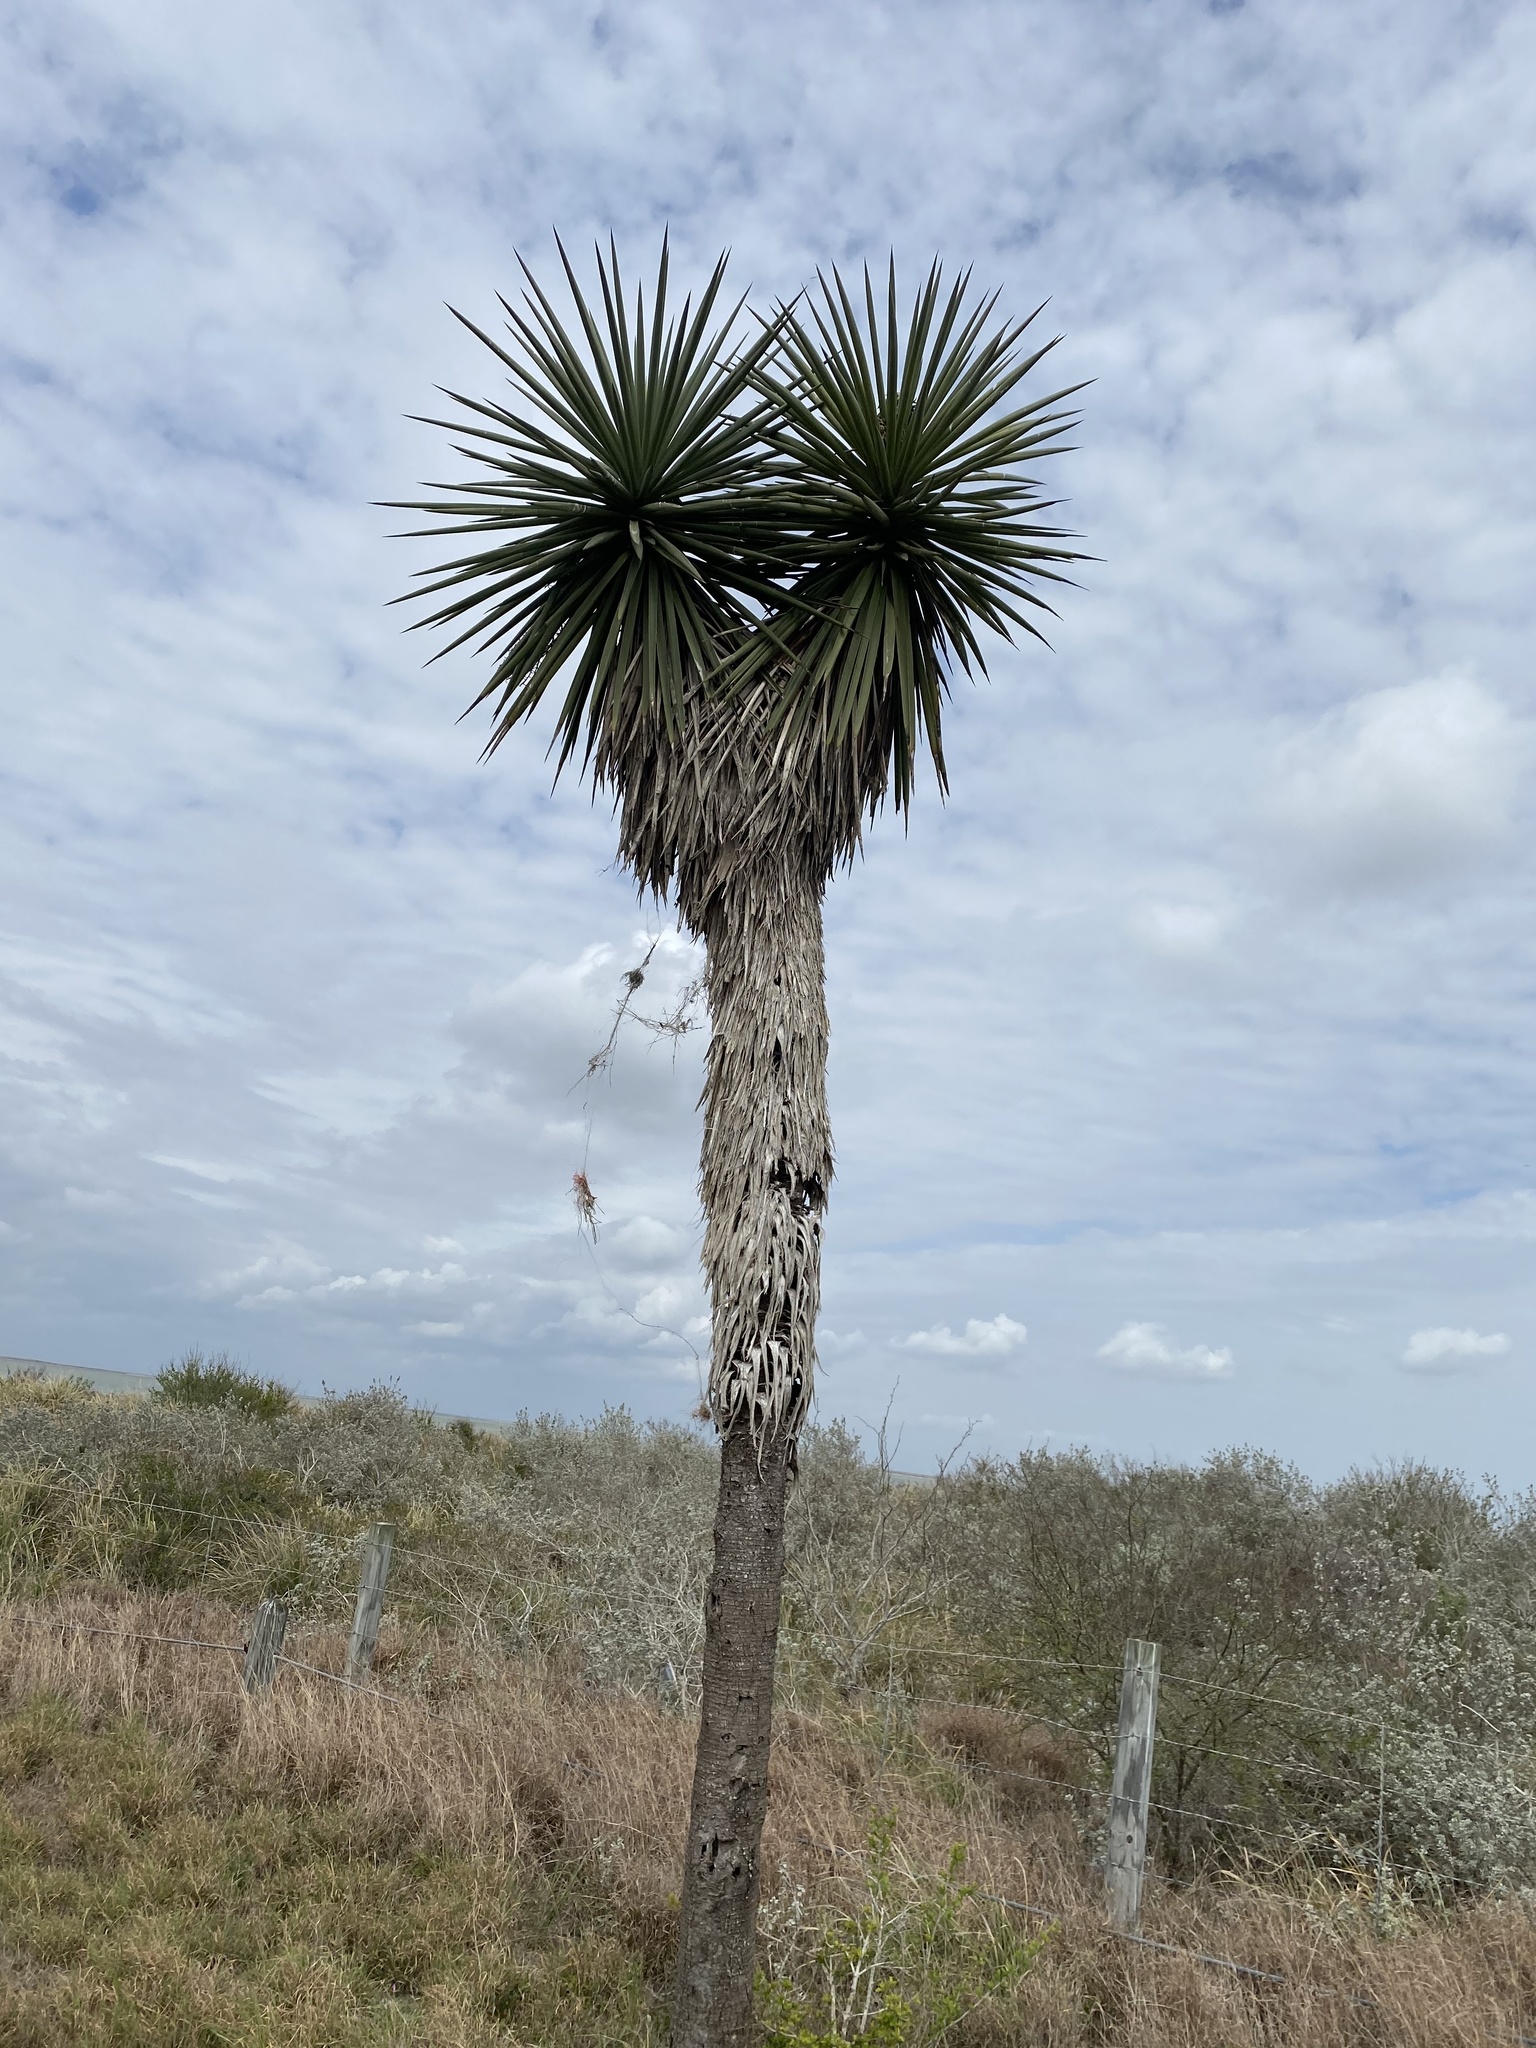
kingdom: Plantae
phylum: Tracheophyta
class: Liliopsida
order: Asparagales
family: Asparagaceae
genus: Yucca
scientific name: Yucca treculiana
